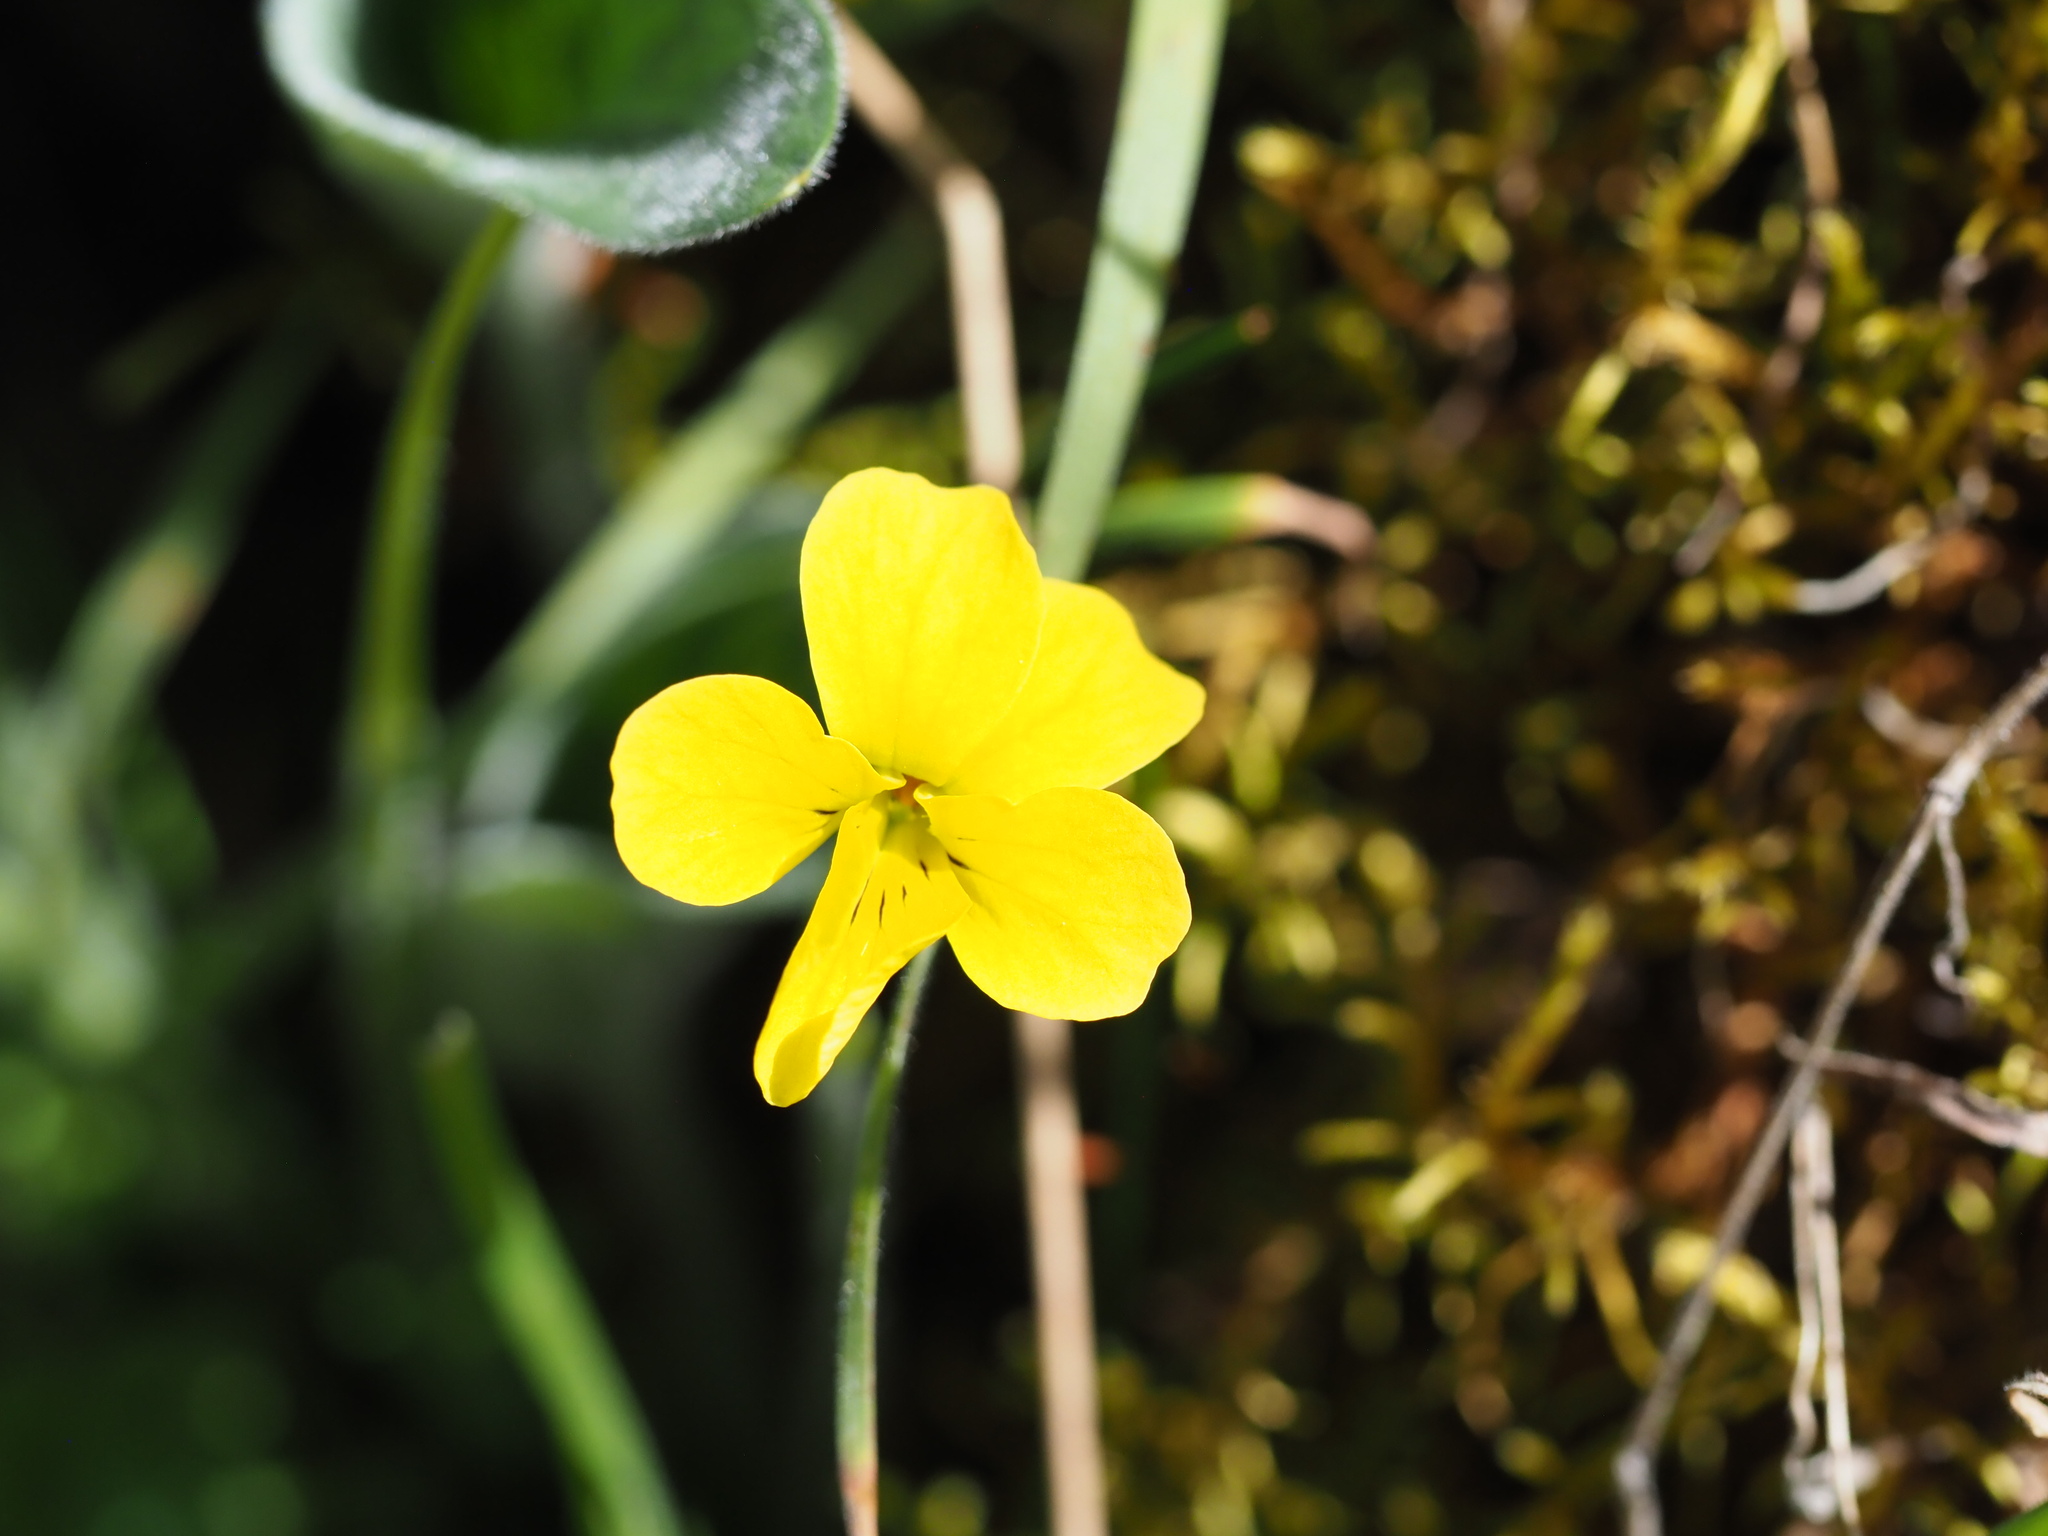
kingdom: Plantae
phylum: Tracheophyta
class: Magnoliopsida
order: Malpighiales
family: Violaceae
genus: Viola
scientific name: Viola praemorsa
